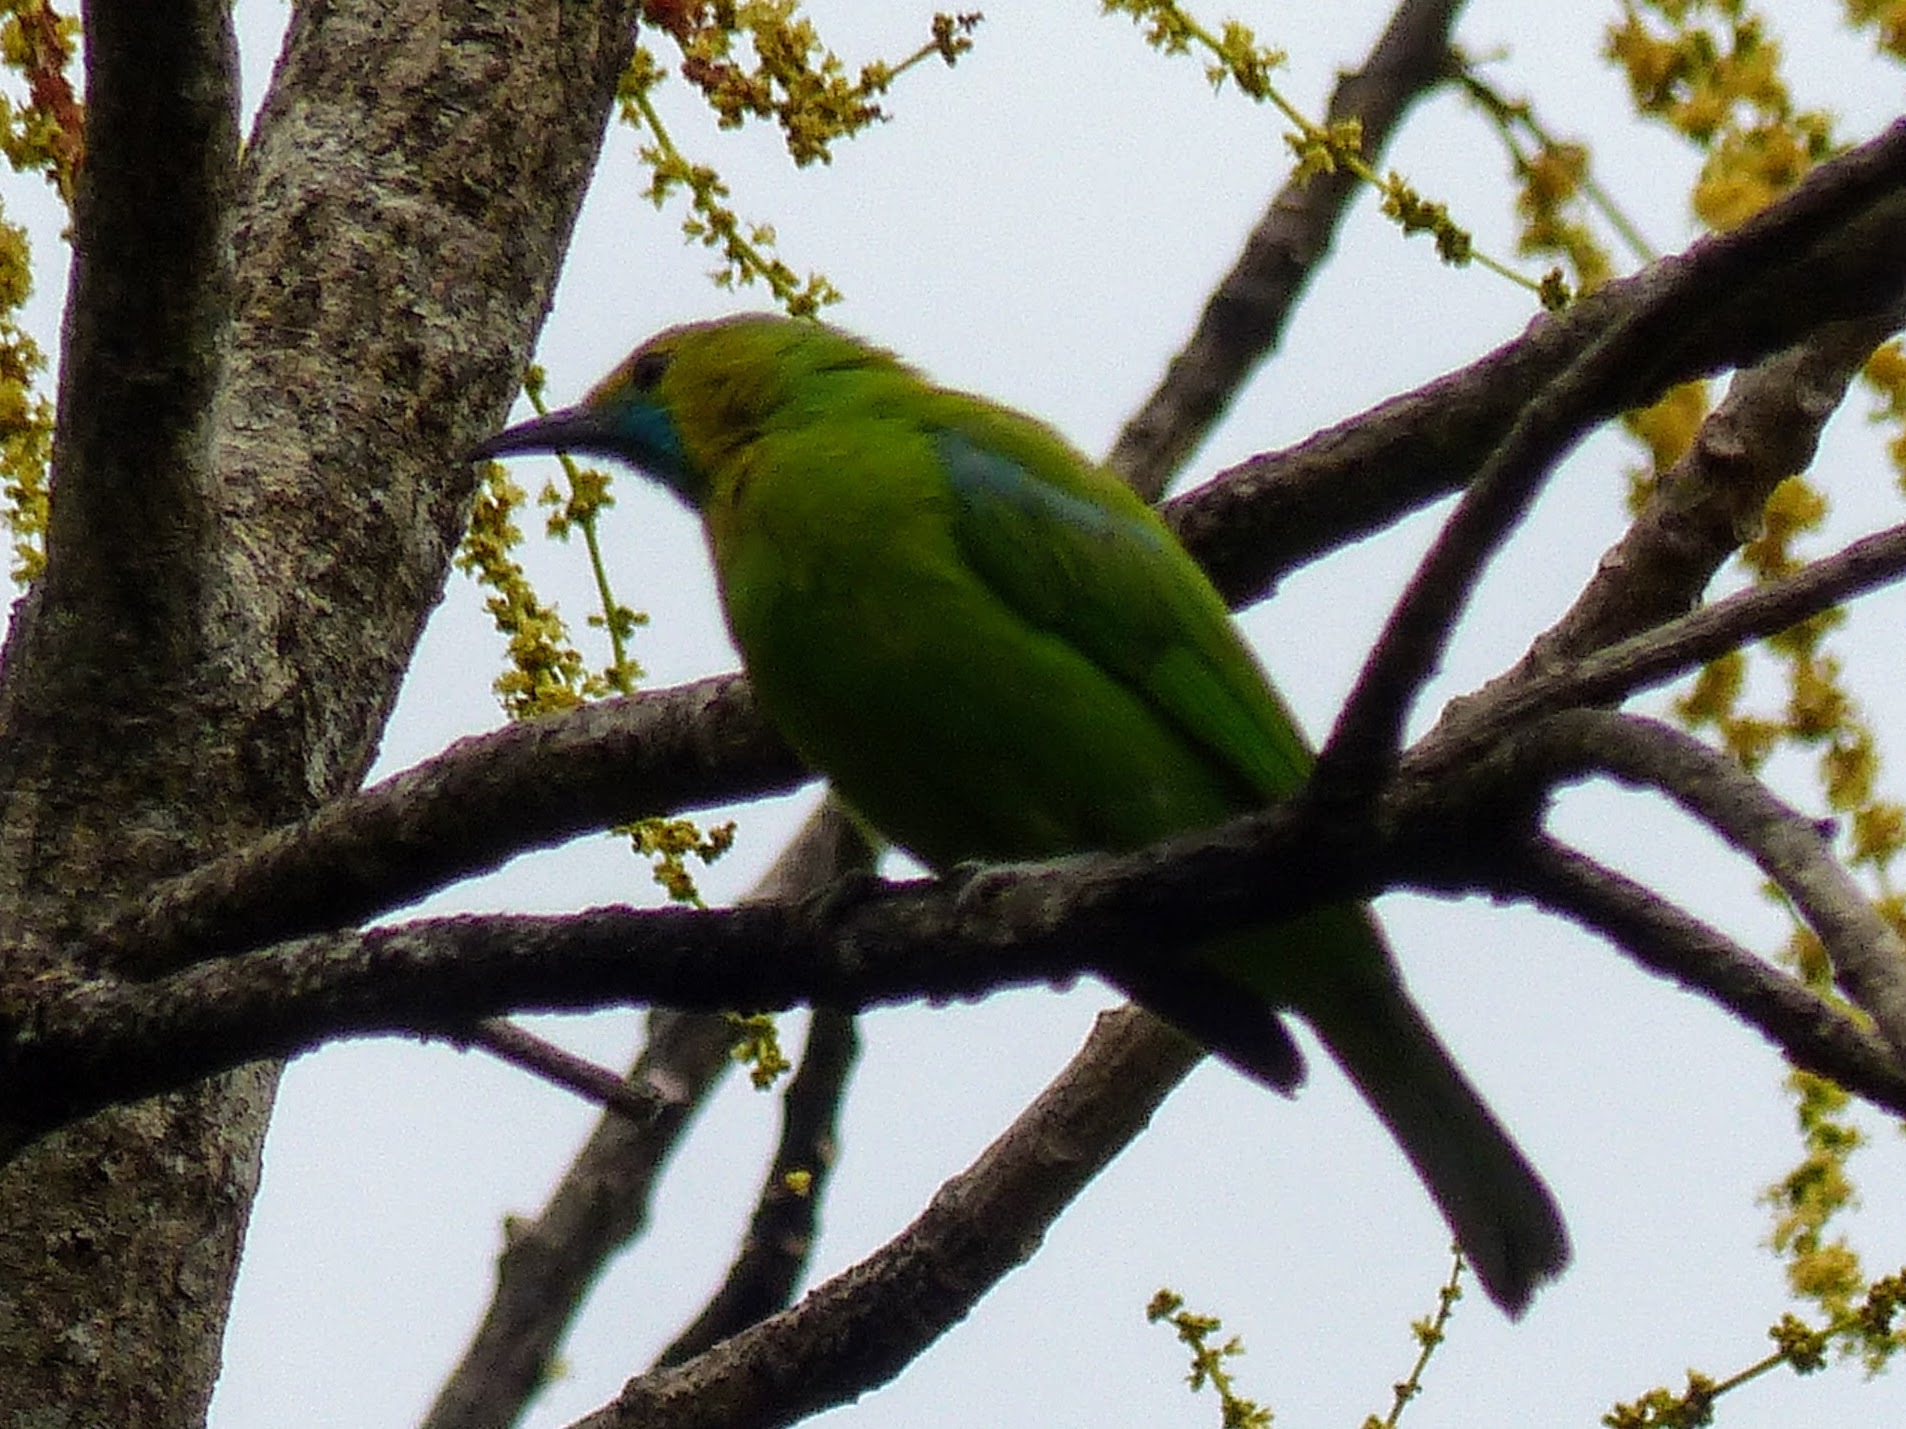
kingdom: Animalia
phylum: Chordata
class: Aves
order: Passeriformes
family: Chloropseidae
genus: Chloropsis
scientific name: Chloropsis jerdoni
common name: Jerdon's leafbird
